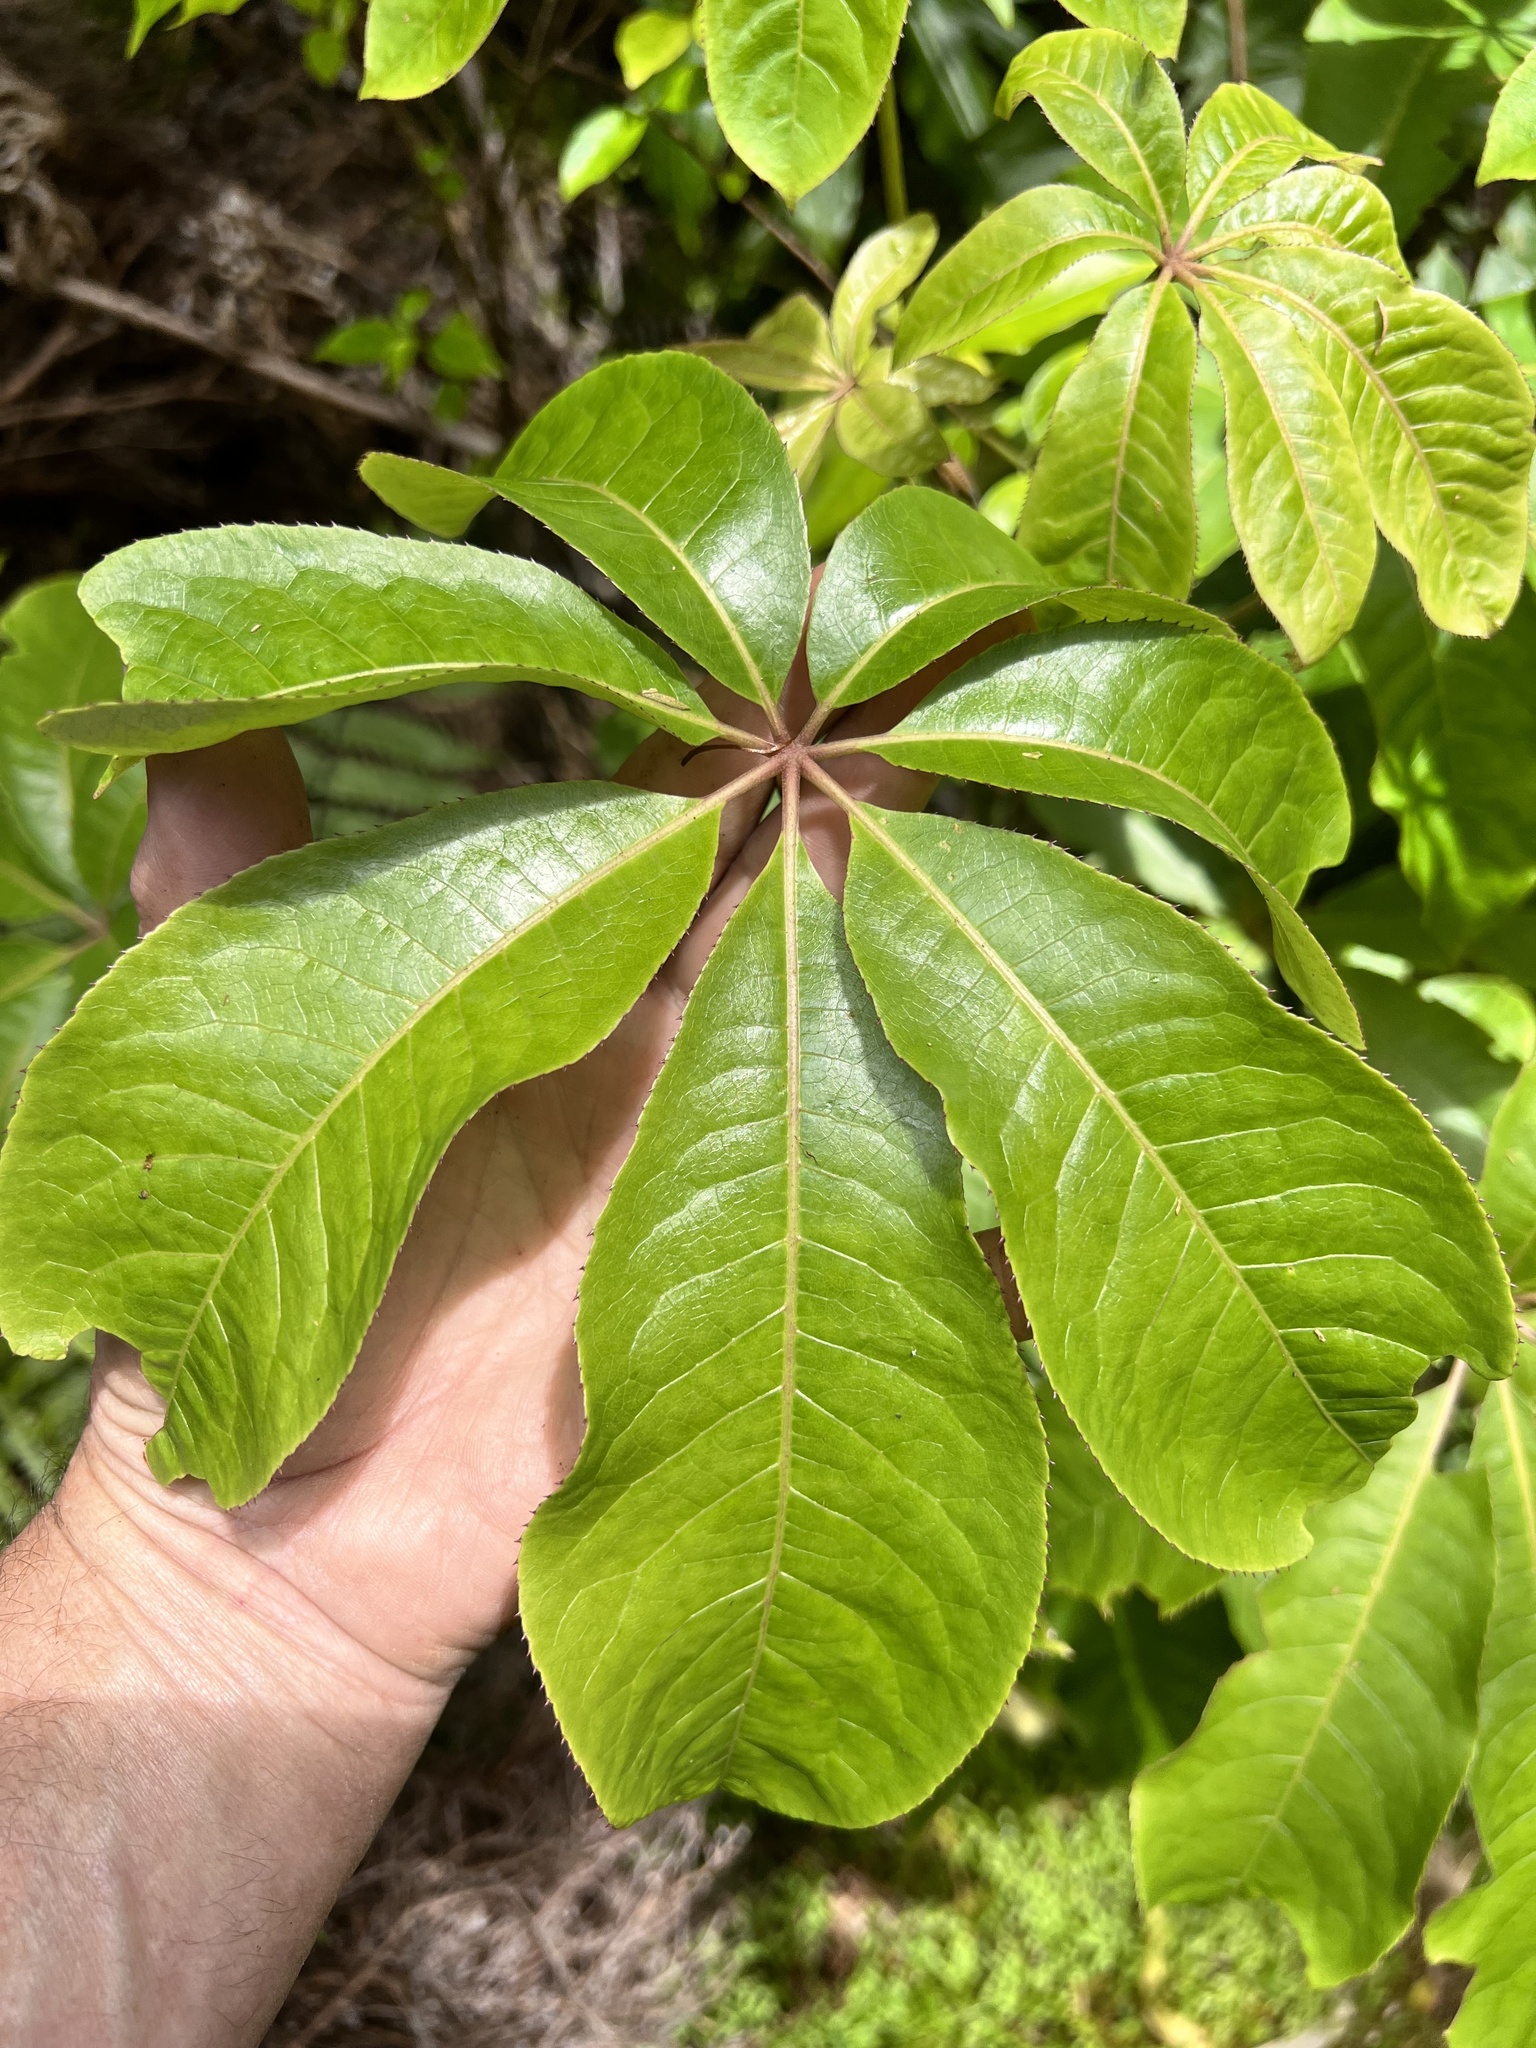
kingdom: Plantae
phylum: Tracheophyta
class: Magnoliopsida
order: Apiales
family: Araliaceae
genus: Schefflera
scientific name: Schefflera digitata
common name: Pate
